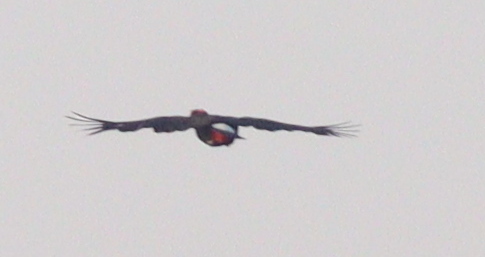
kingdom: Animalia
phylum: Chordata
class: Aves
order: Piciformes
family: Ramphastidae
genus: Ramphastos
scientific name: Ramphastos toco
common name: Toco toucan
